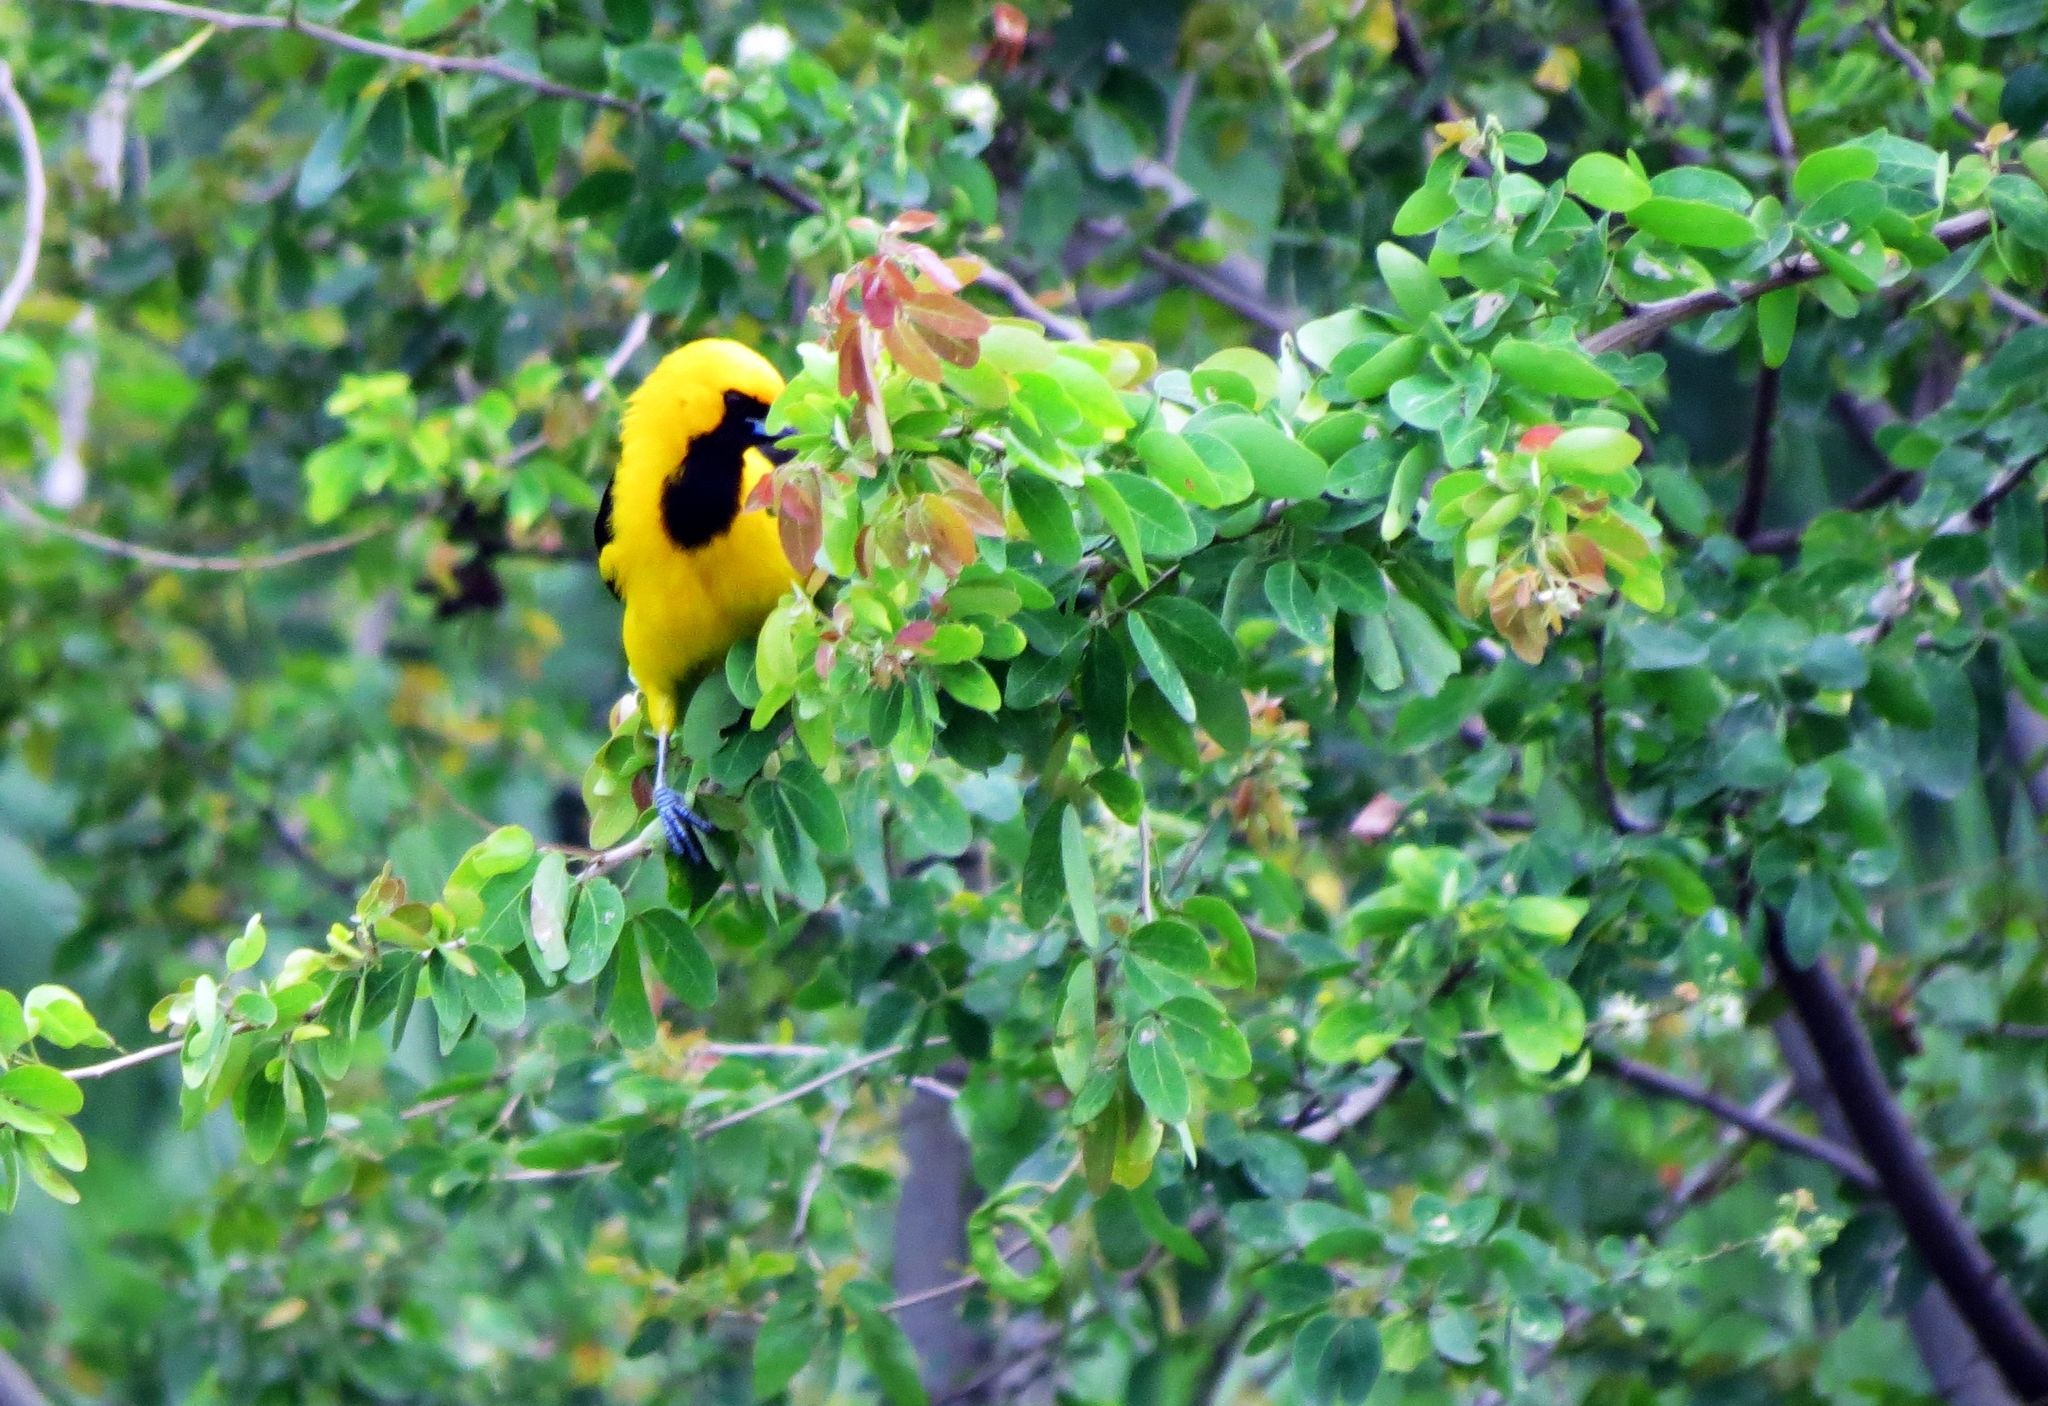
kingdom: Animalia
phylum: Chordata
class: Aves
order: Passeriformes
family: Icteridae
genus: Icterus
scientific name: Icterus mesomelas
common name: Yellow-tailed oriole
